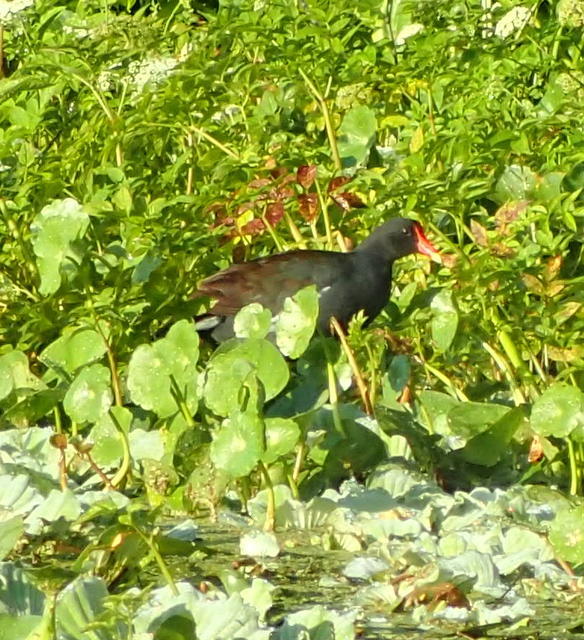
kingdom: Animalia
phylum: Chordata
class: Aves
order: Gruiformes
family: Rallidae
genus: Gallinula
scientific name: Gallinula chloropus
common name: Common moorhen
